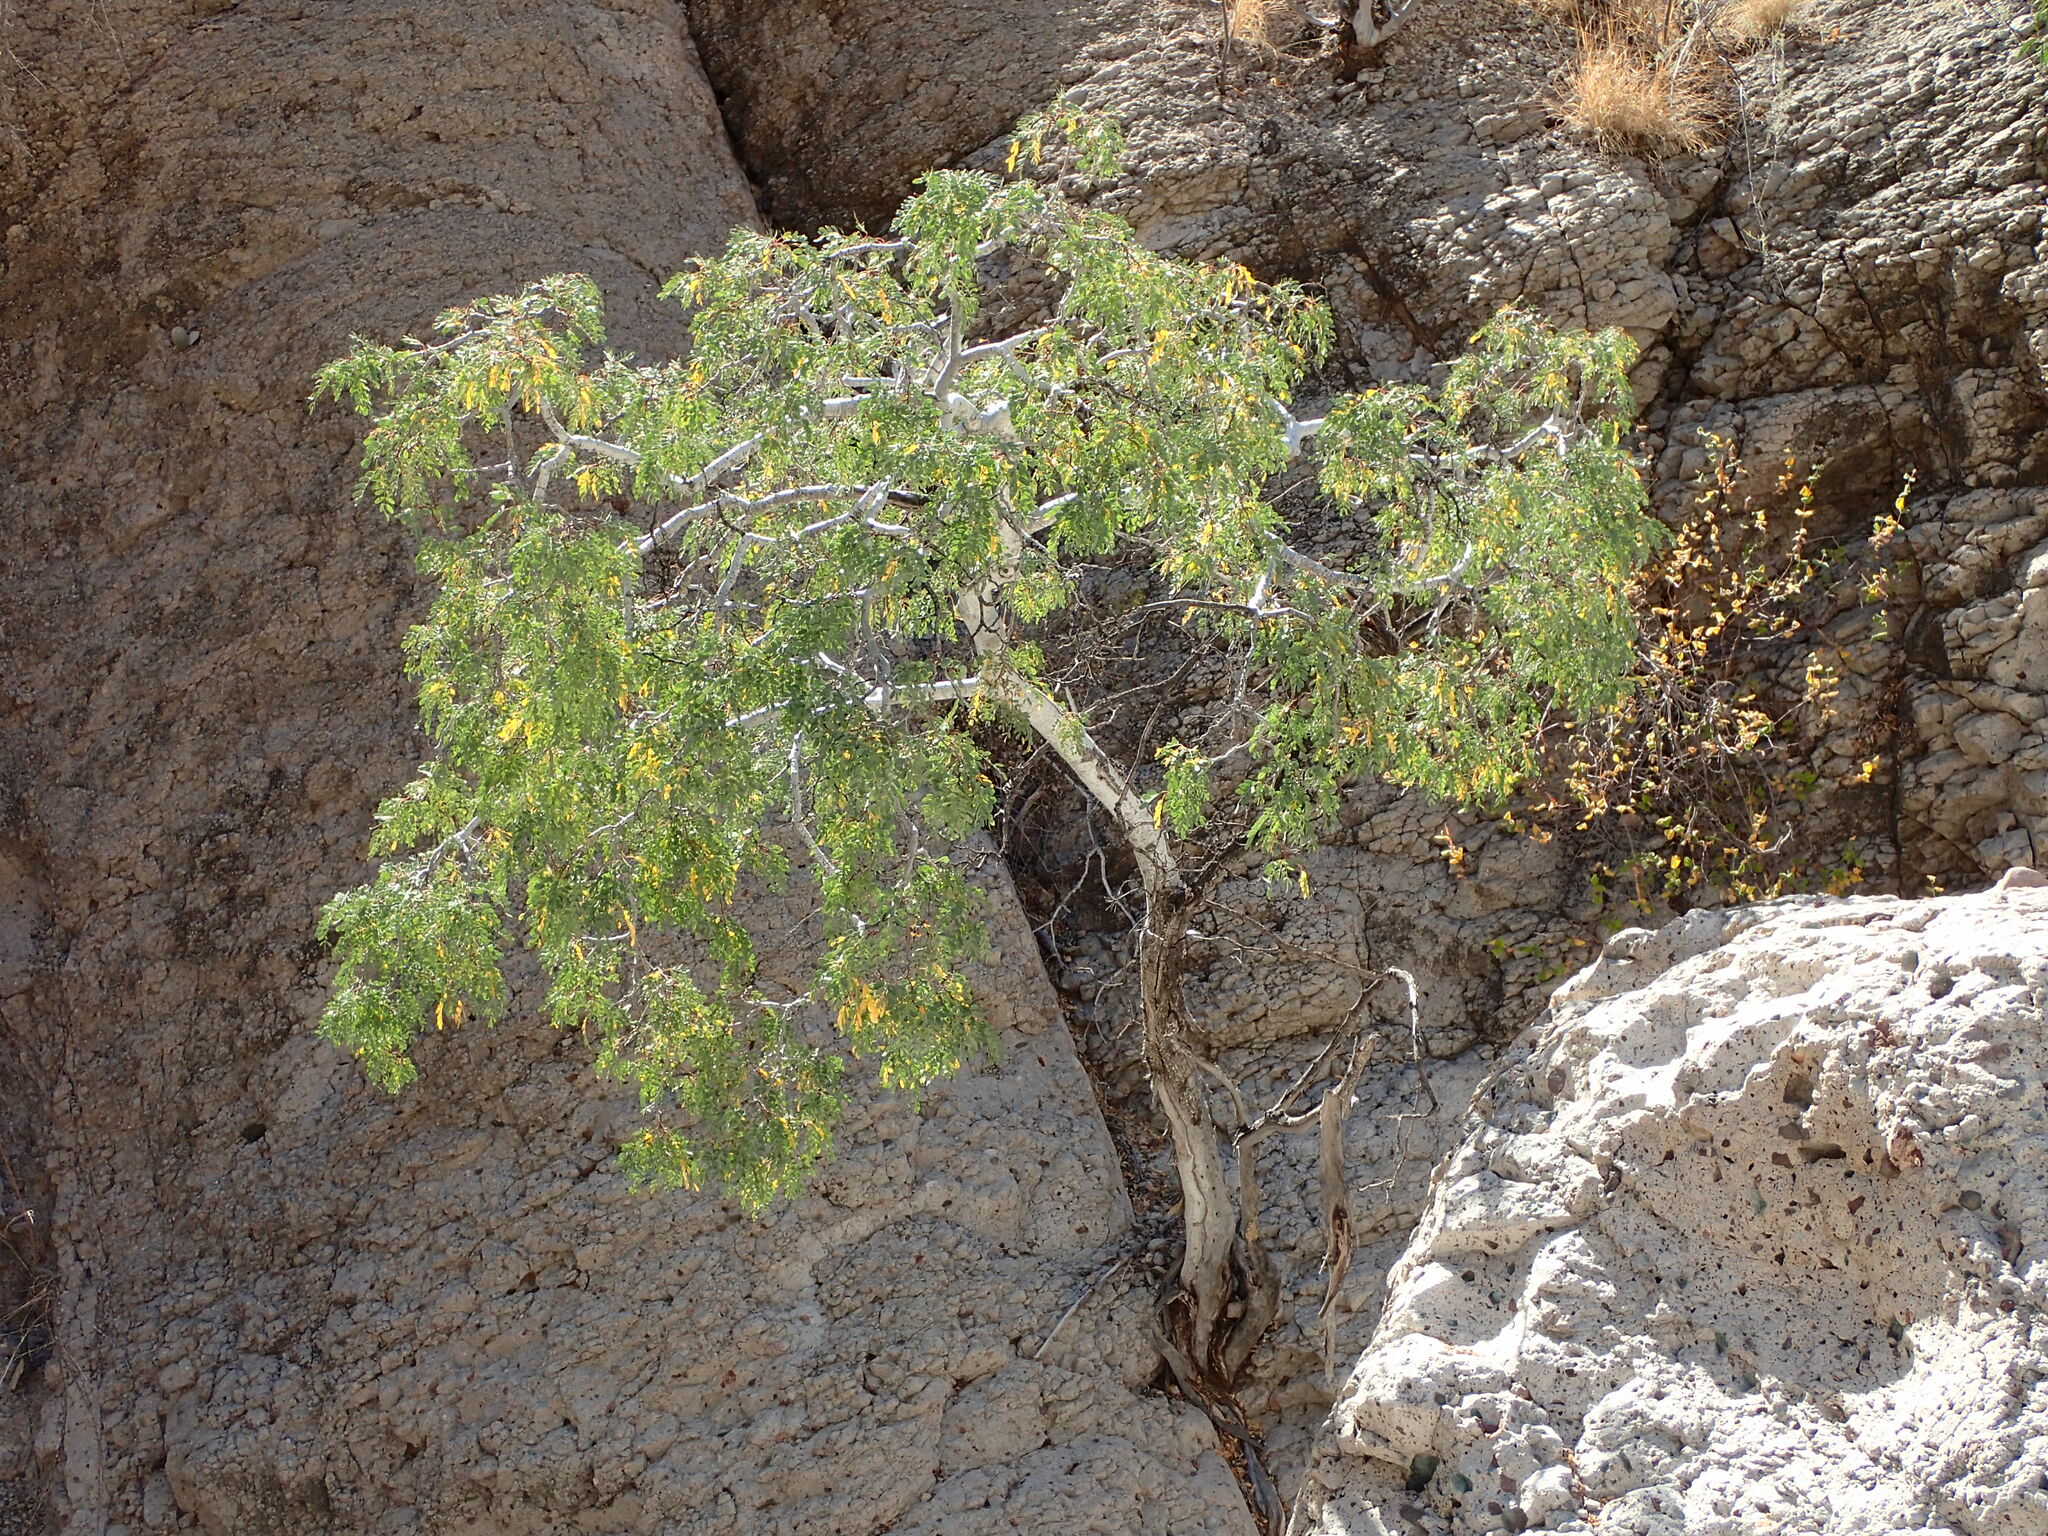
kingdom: Plantae
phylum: Tracheophyta
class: Magnoliopsida
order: Fabales
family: Fabaceae
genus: Lysiloma
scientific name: Lysiloma candidum
